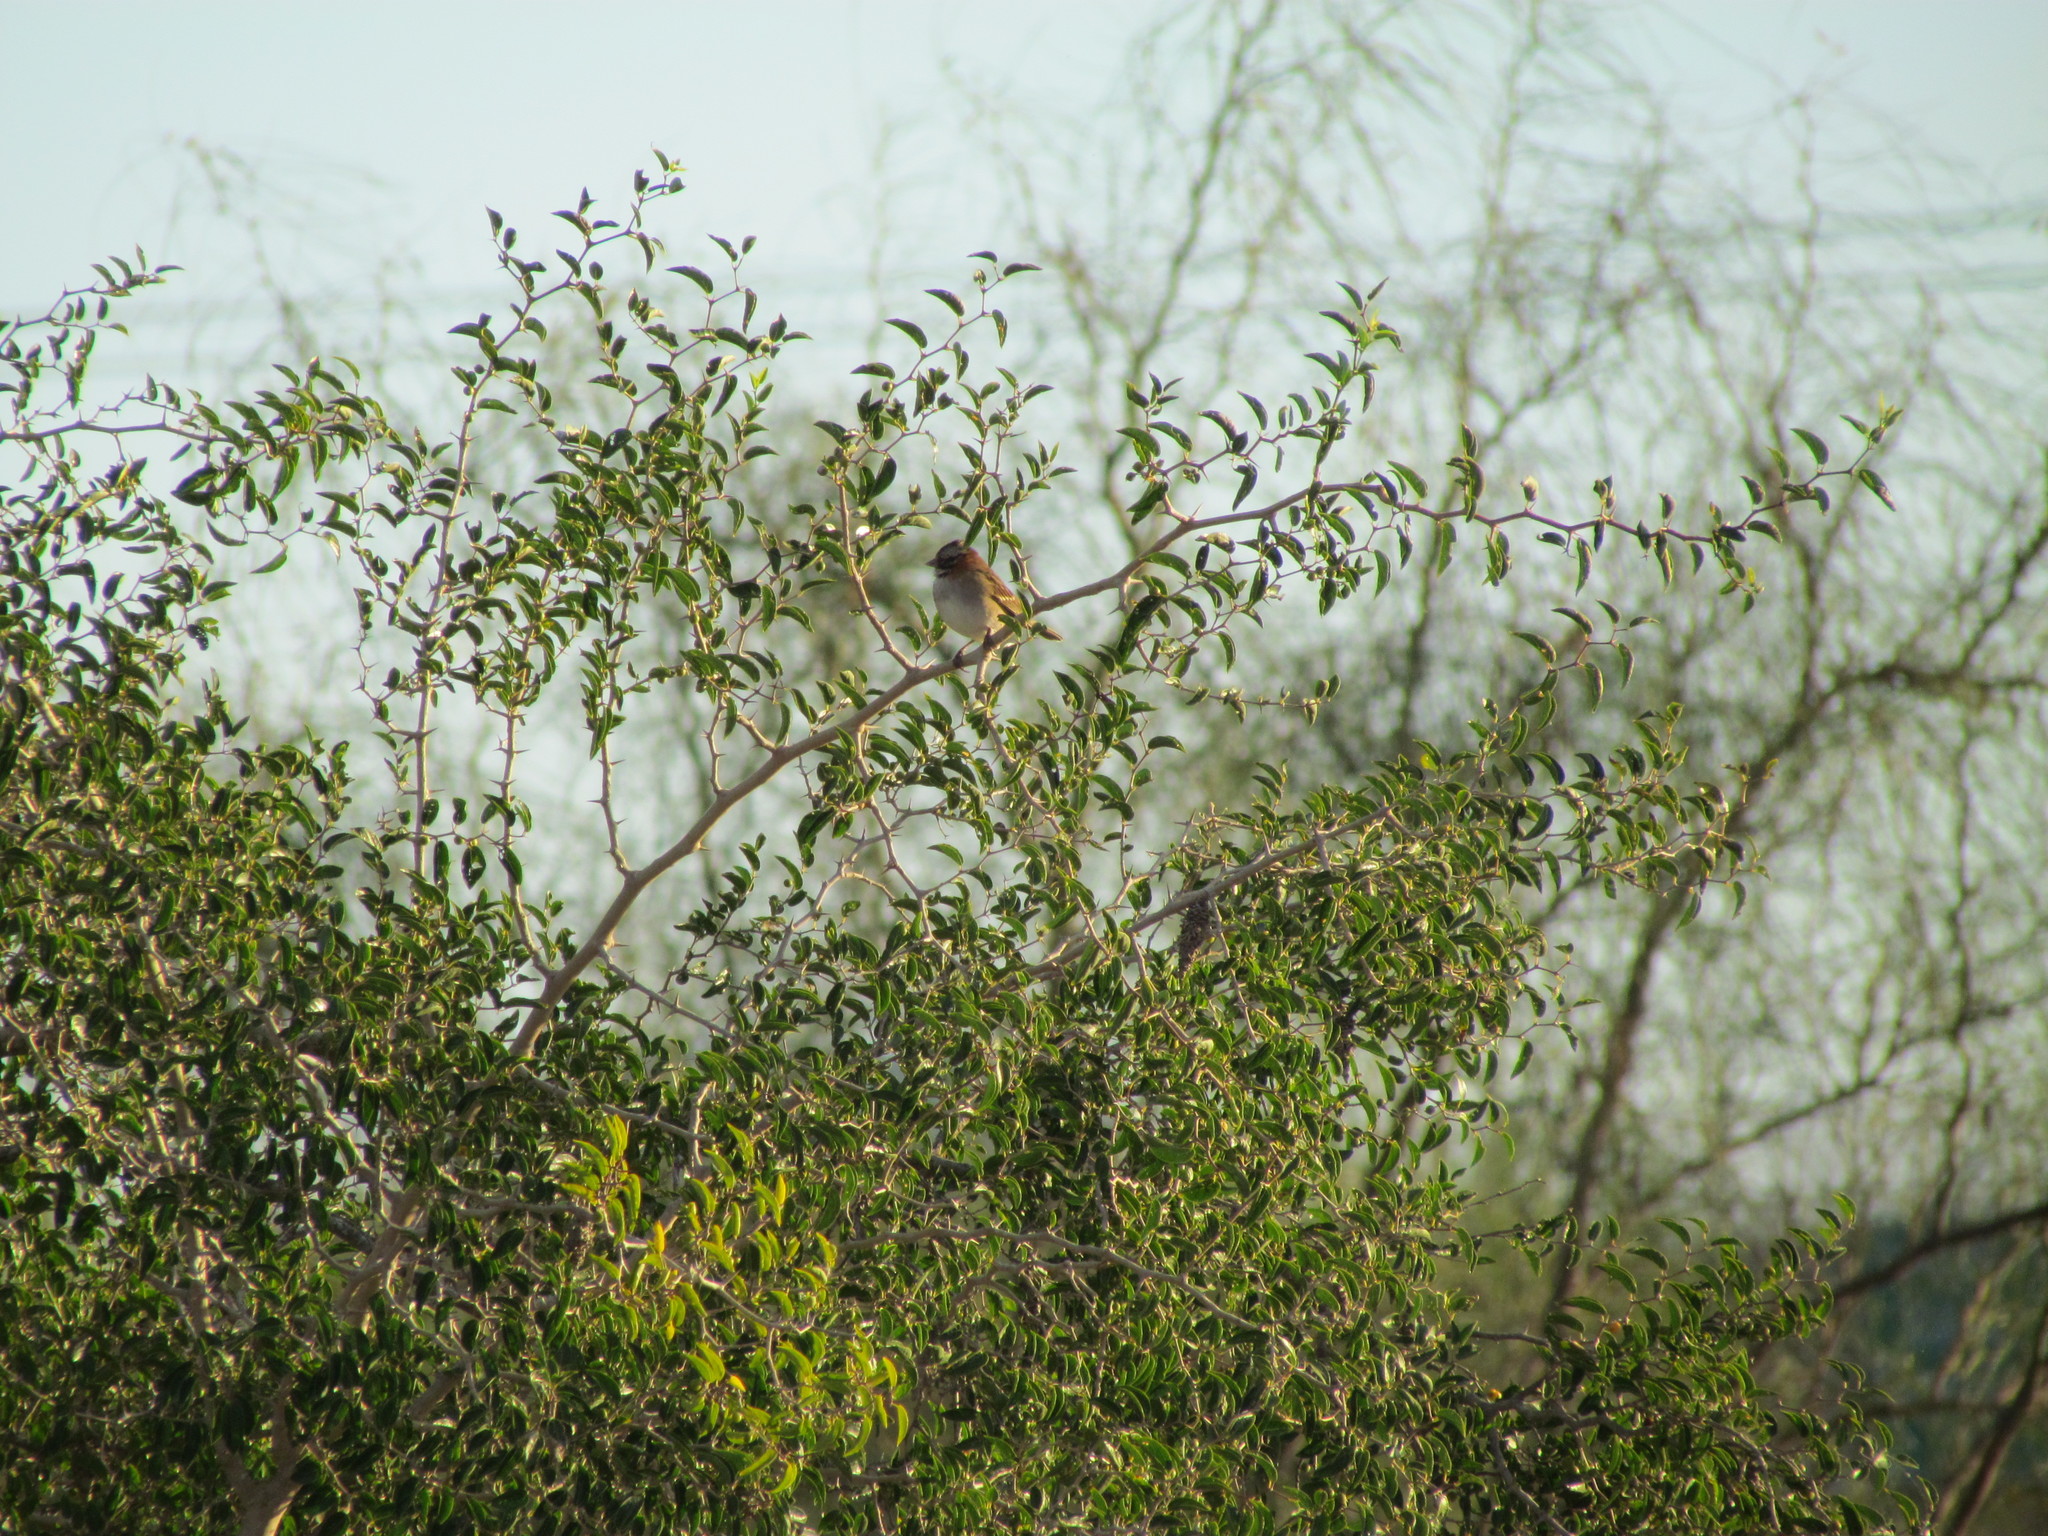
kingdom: Animalia
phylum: Chordata
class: Aves
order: Passeriformes
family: Passerellidae
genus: Zonotrichia
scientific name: Zonotrichia capensis
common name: Rufous-collared sparrow
